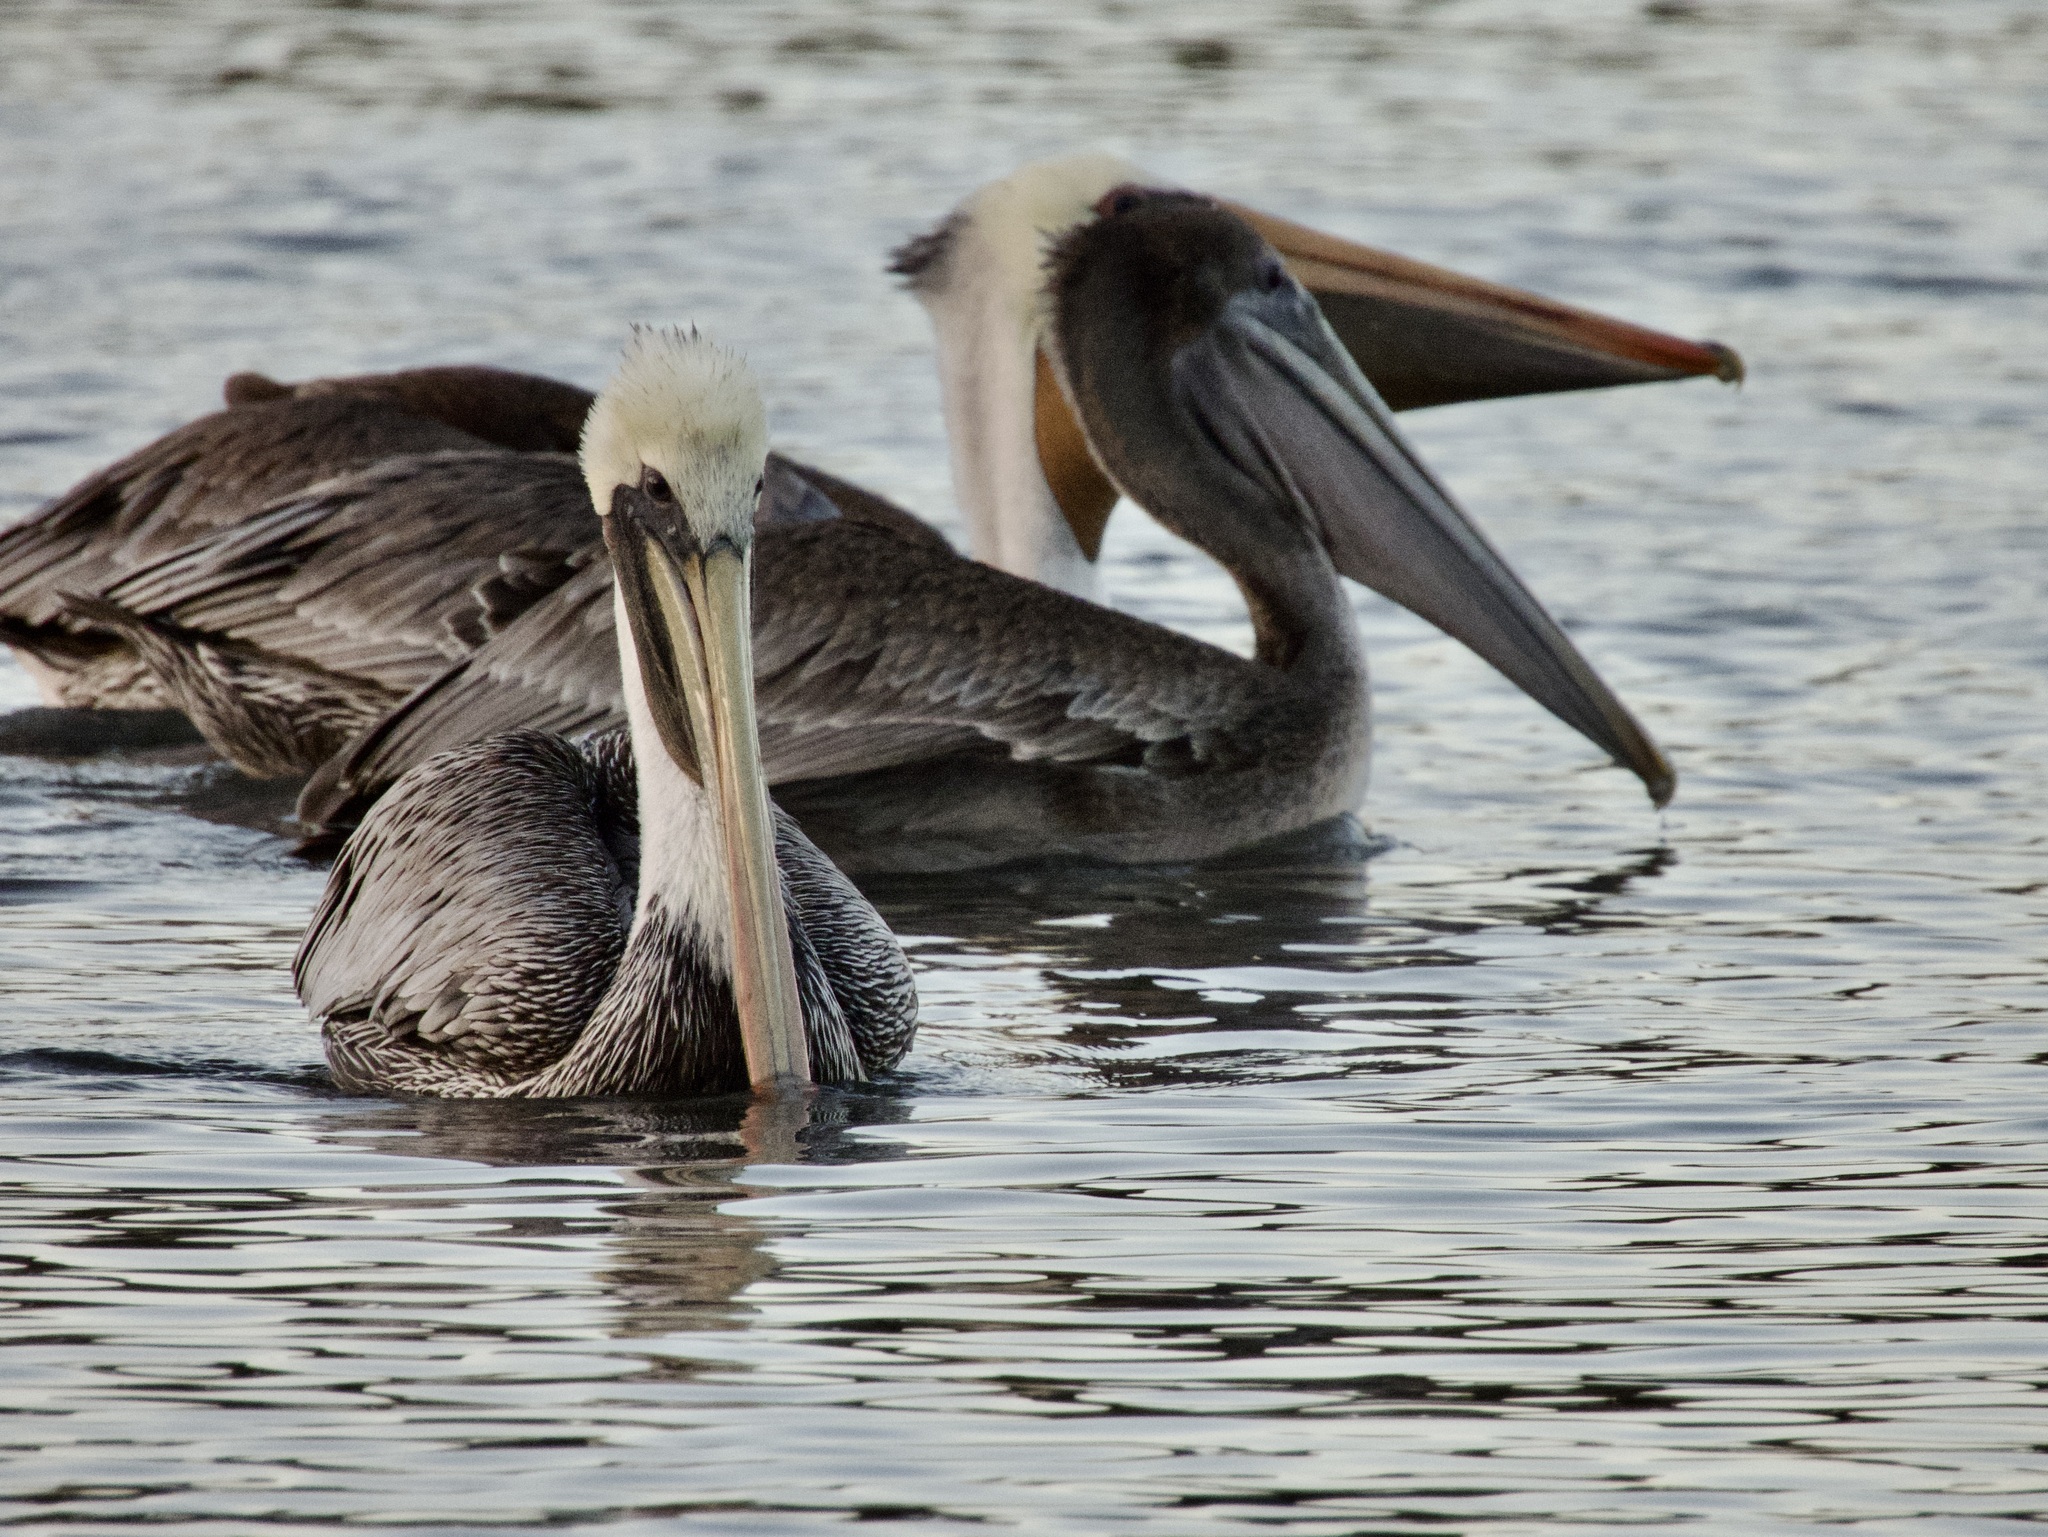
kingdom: Animalia
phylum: Chordata
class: Aves
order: Pelecaniformes
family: Pelecanidae
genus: Pelecanus
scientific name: Pelecanus occidentalis
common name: Brown pelican
